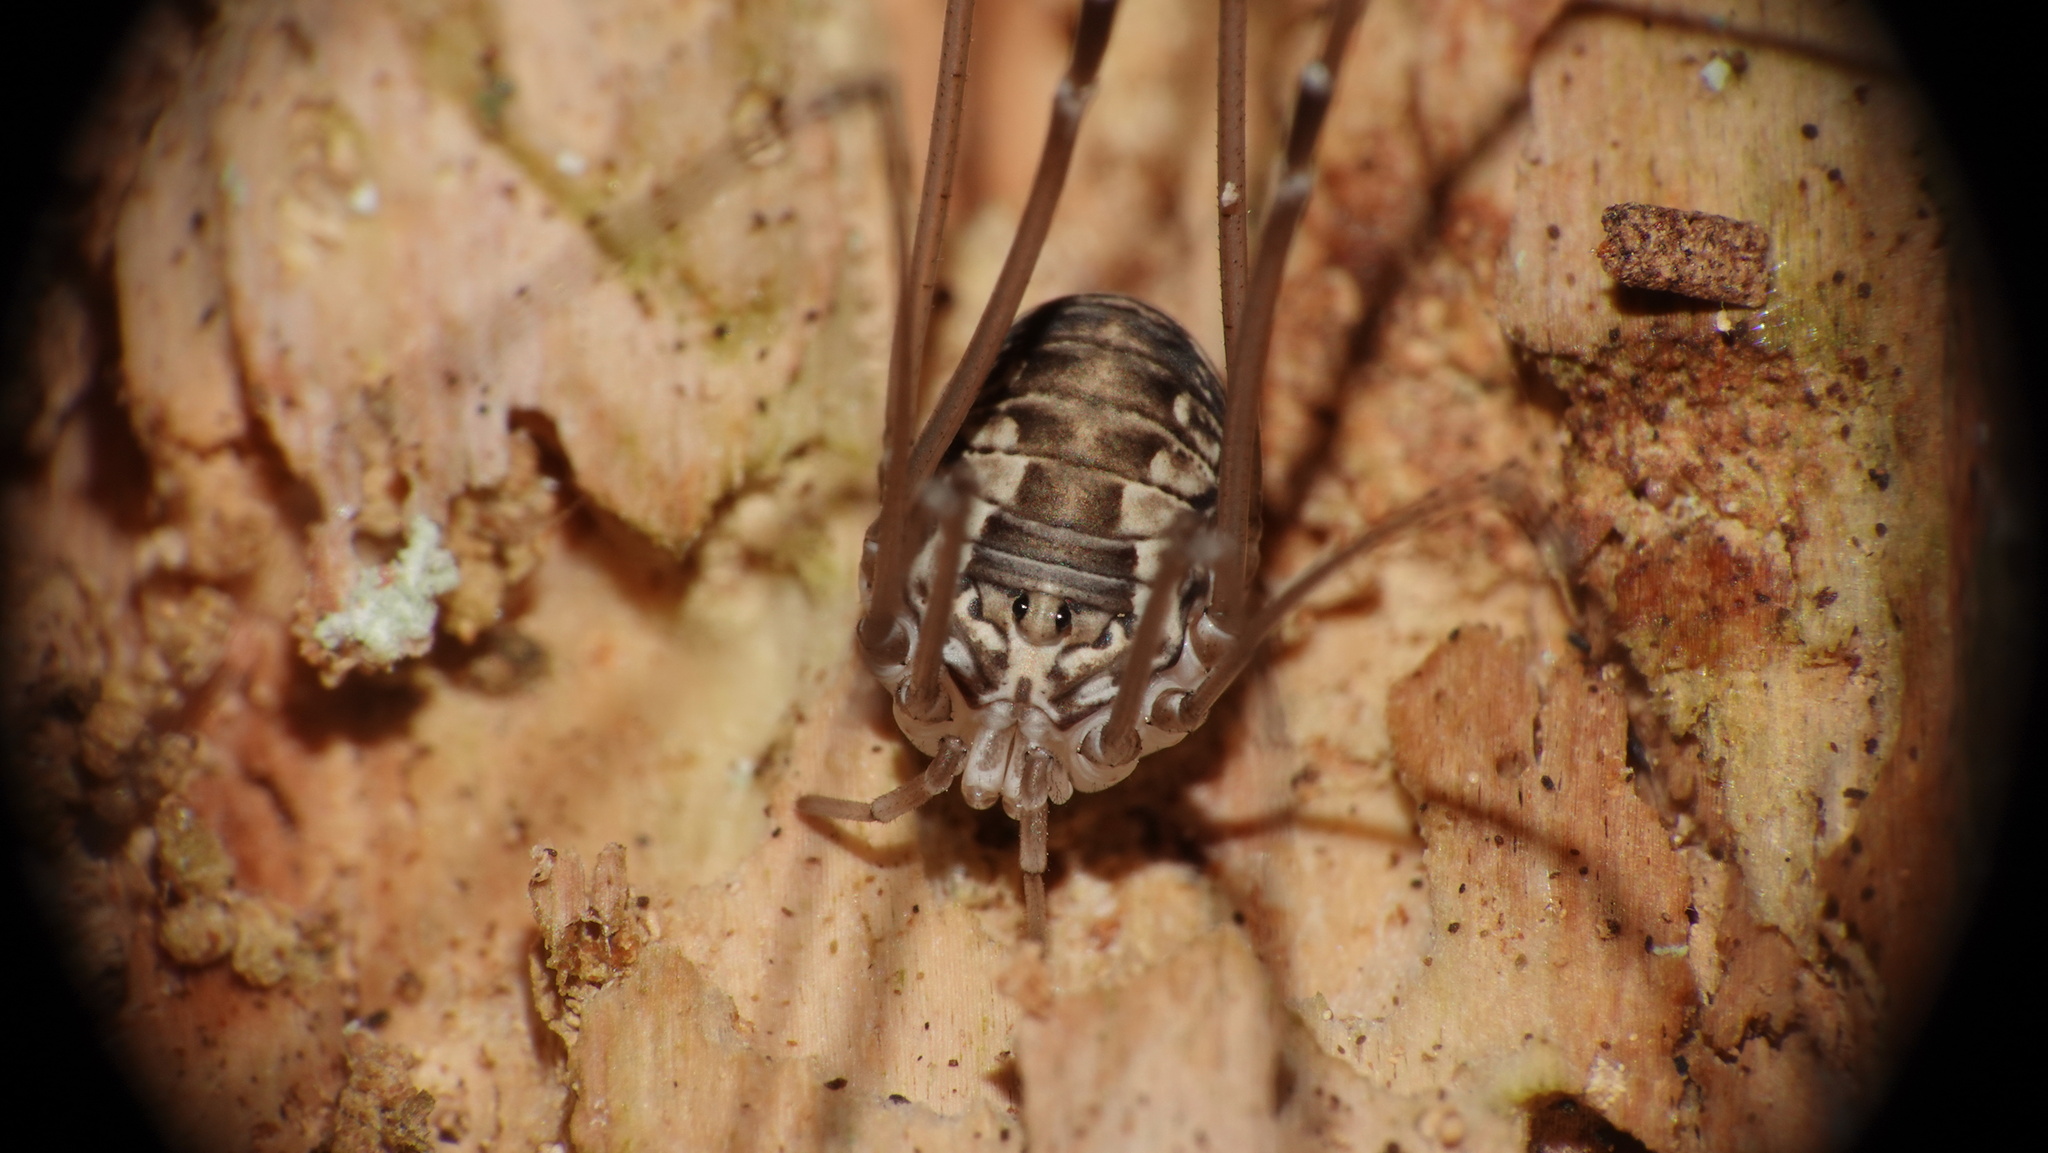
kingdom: Animalia
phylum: Arthropoda
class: Arachnida
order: Opiliones
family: Sclerosomatidae
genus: Leiobunum
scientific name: Leiobunum limbatum
